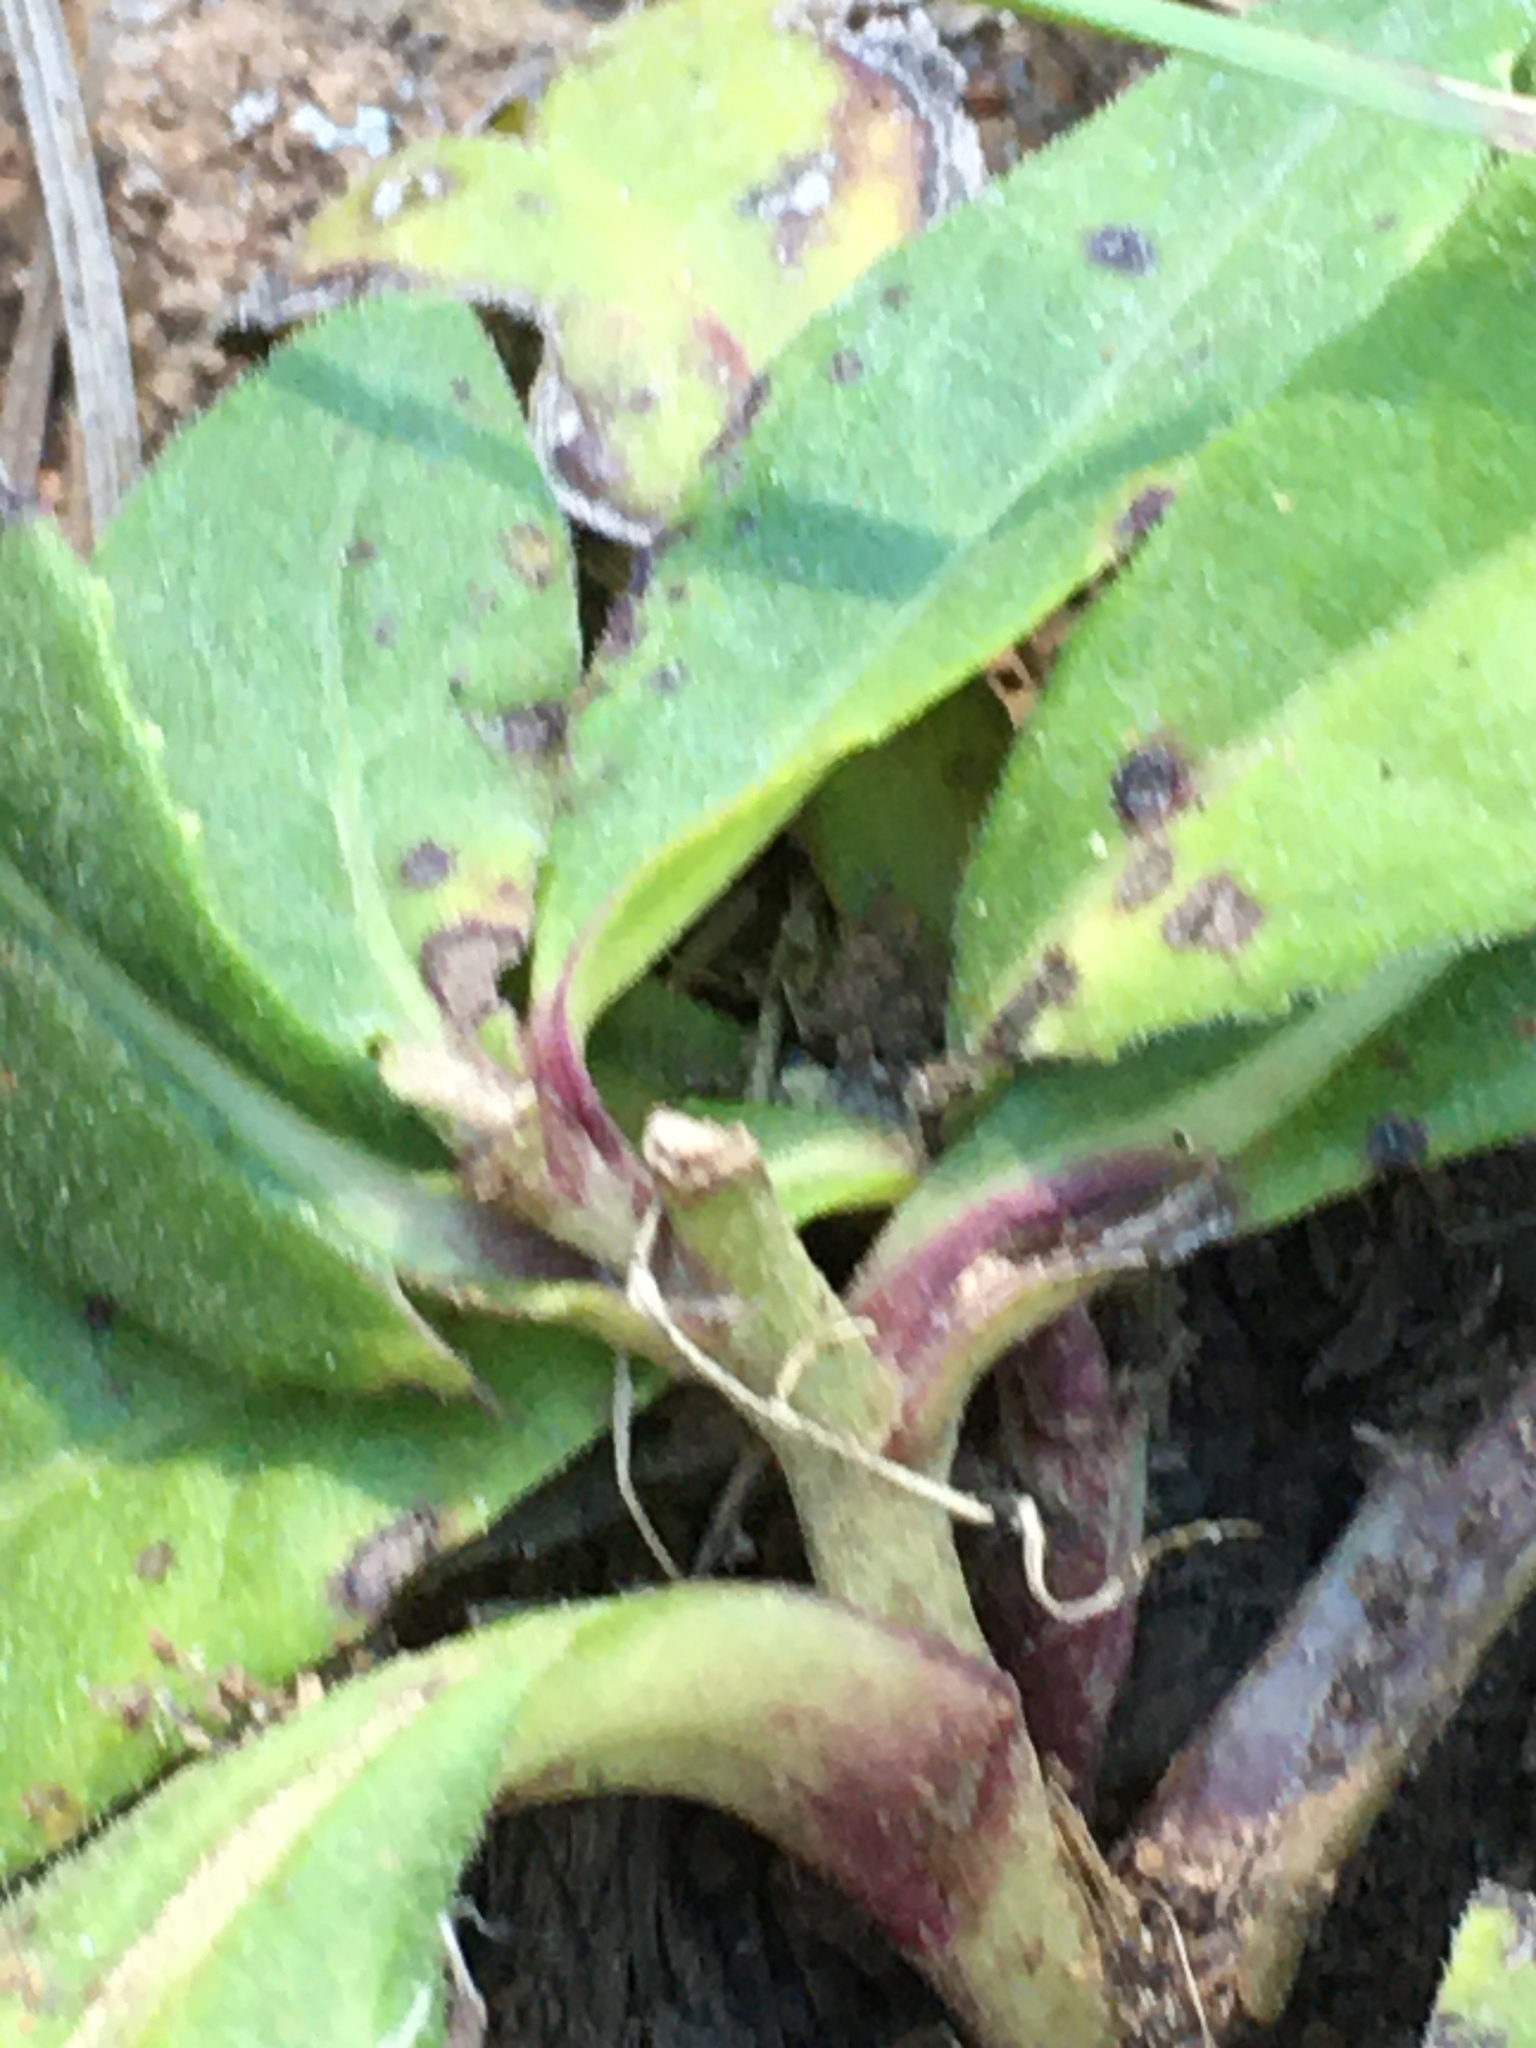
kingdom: Plantae
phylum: Tracheophyta
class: Magnoliopsida
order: Asterales
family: Asteraceae
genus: Vernonia
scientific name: Vernonia acaulis
